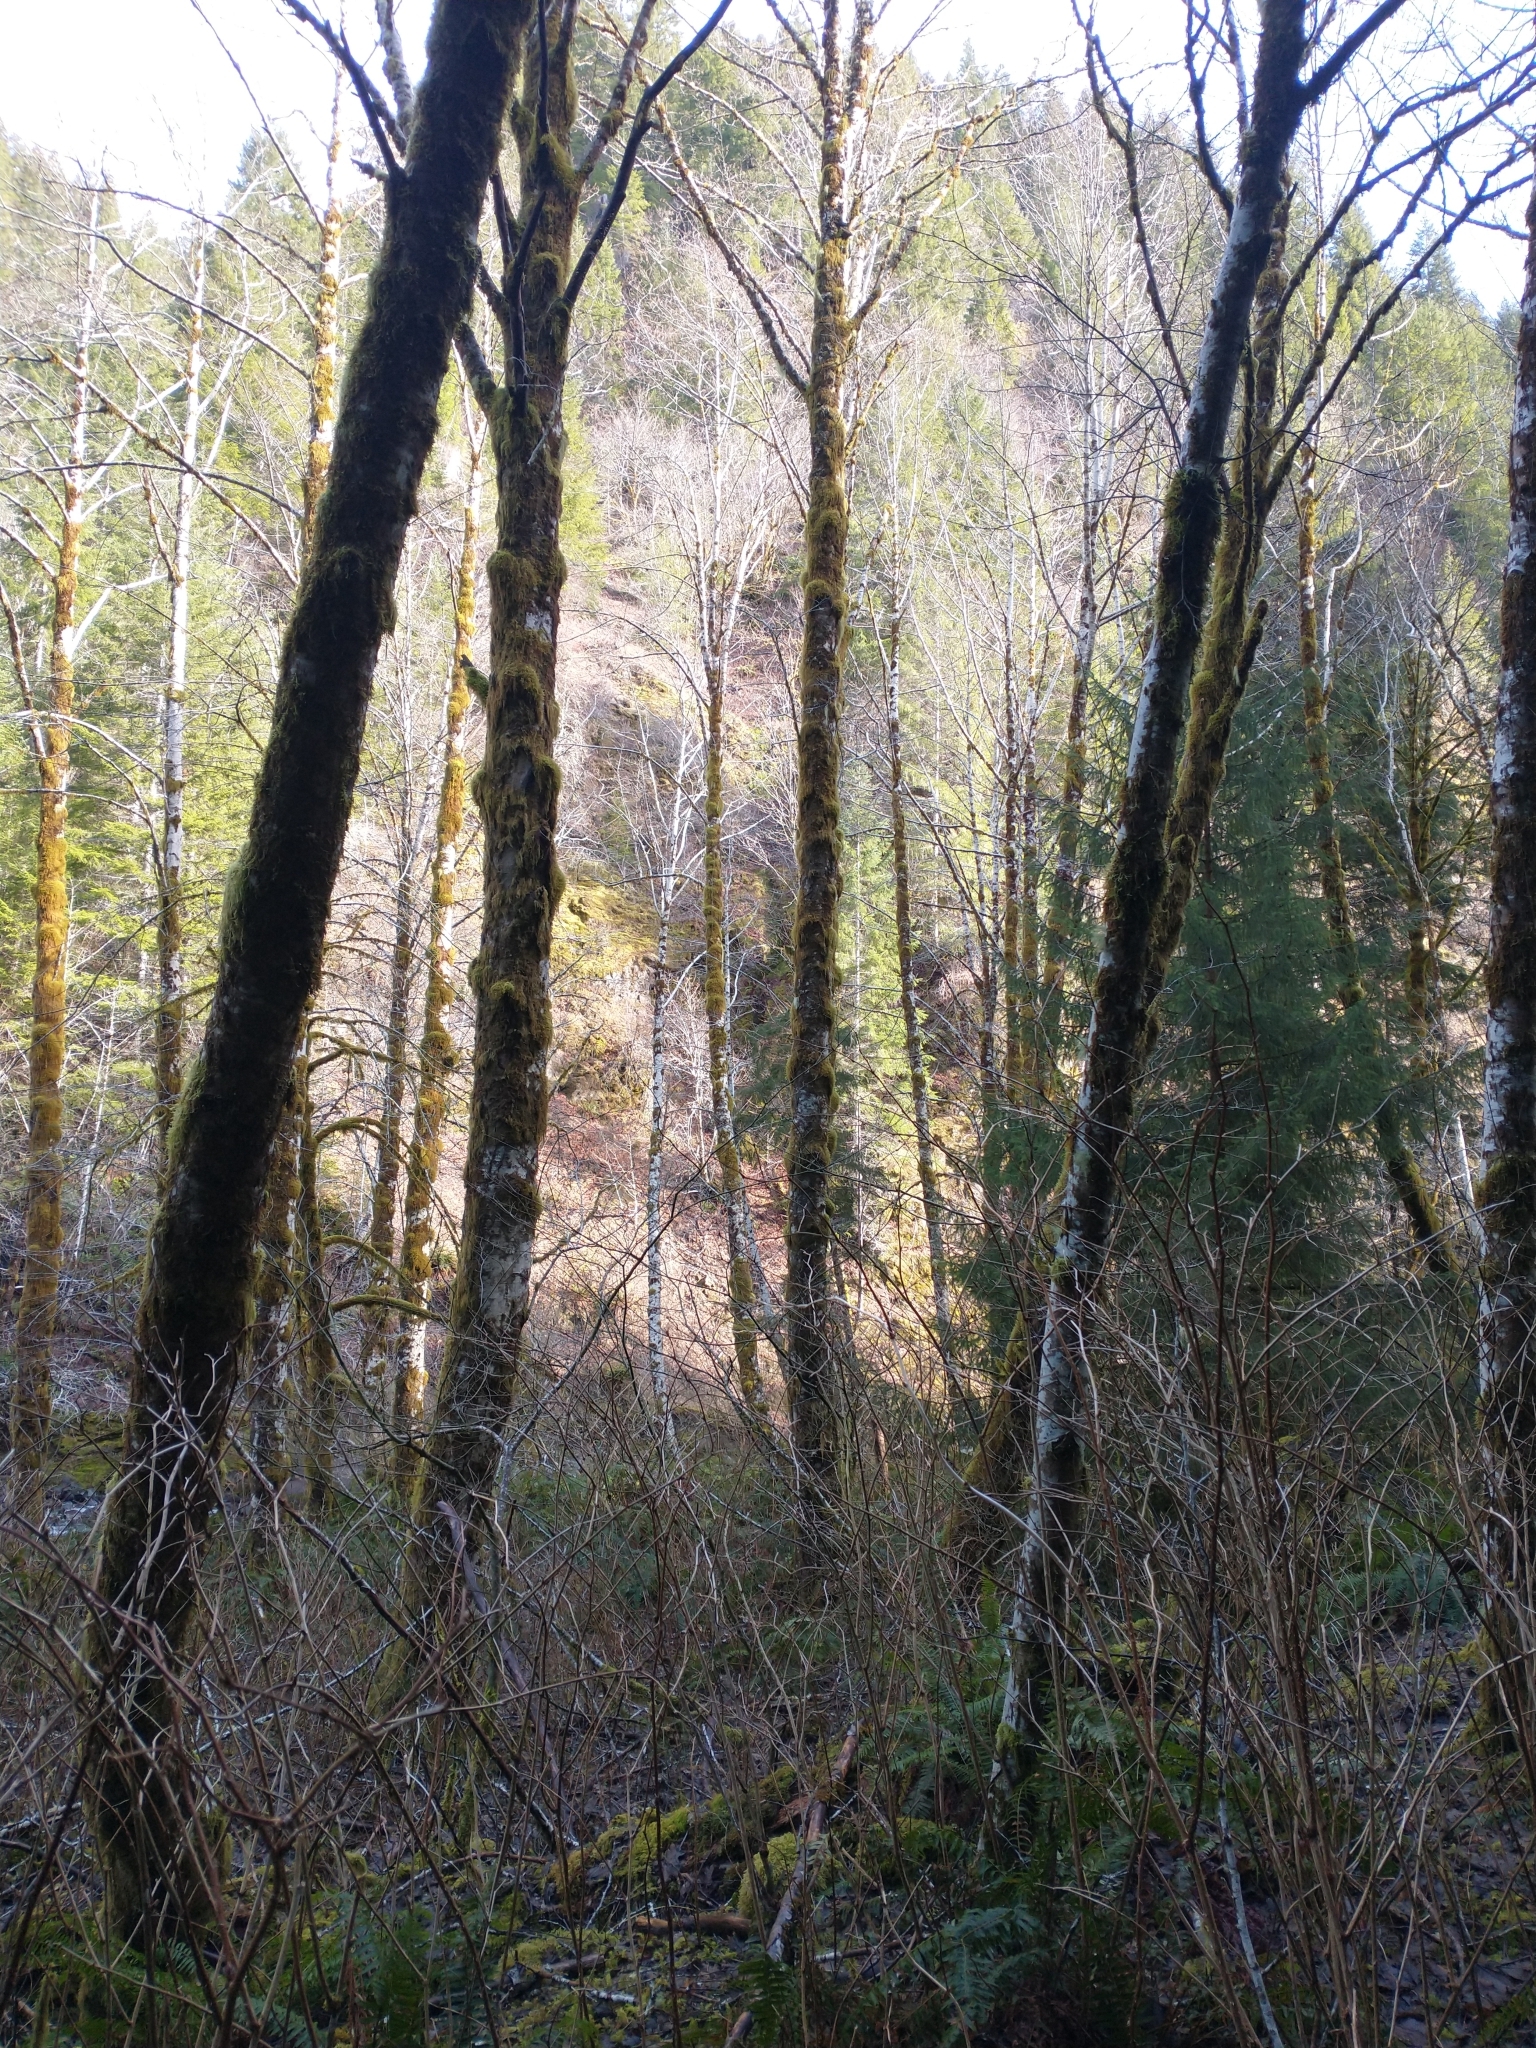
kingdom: Plantae
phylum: Tracheophyta
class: Magnoliopsida
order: Fagales
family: Betulaceae
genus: Alnus
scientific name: Alnus rubra
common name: Red alder
